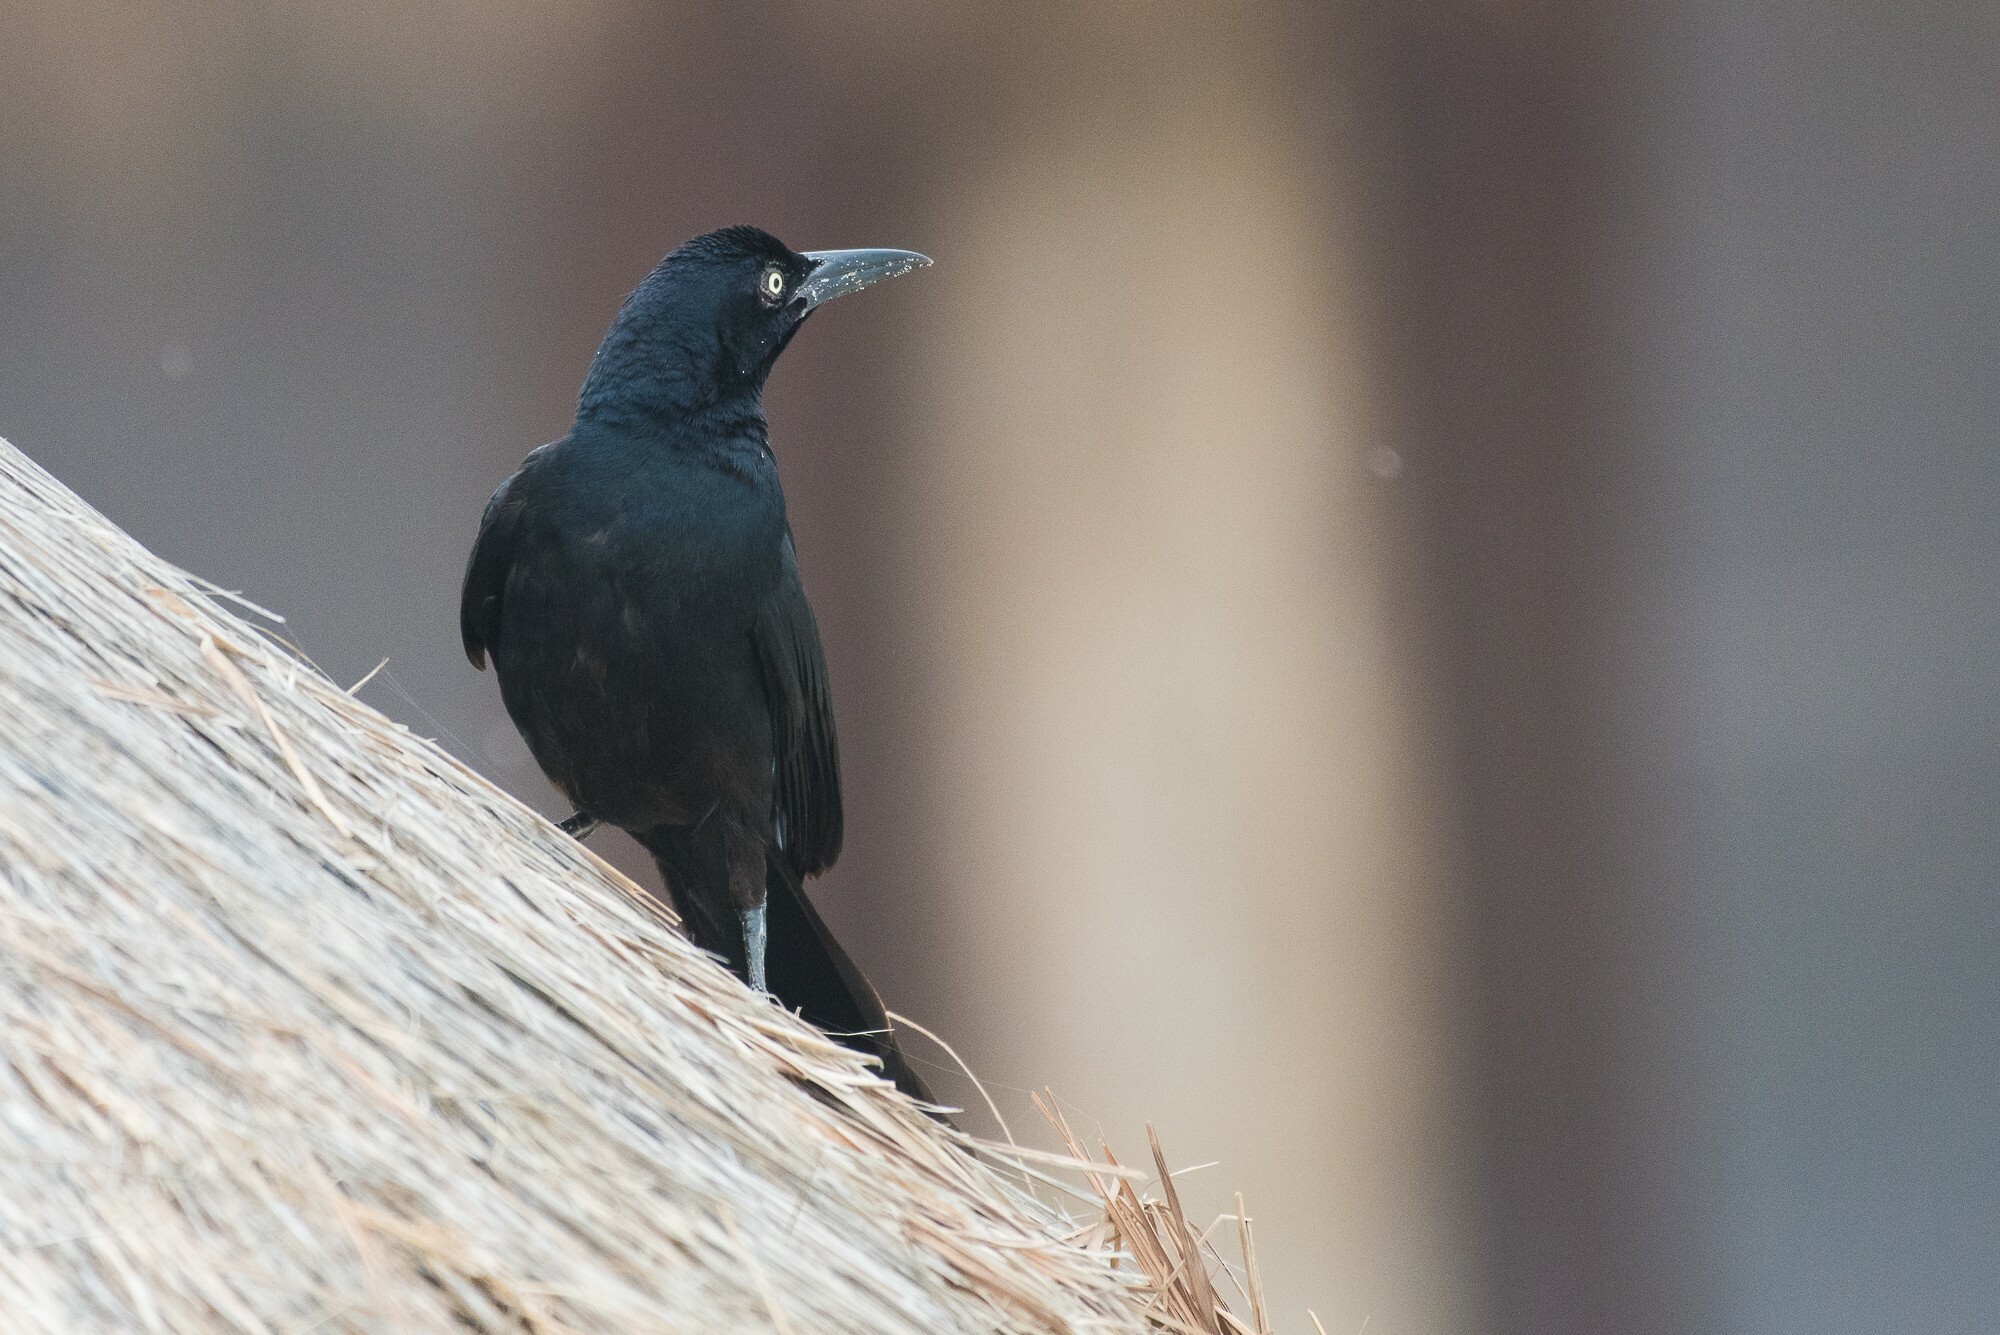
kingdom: Animalia
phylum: Chordata
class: Aves
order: Passeriformes
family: Icteridae
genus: Quiscalus
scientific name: Quiscalus mexicanus
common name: Great-tailed grackle
